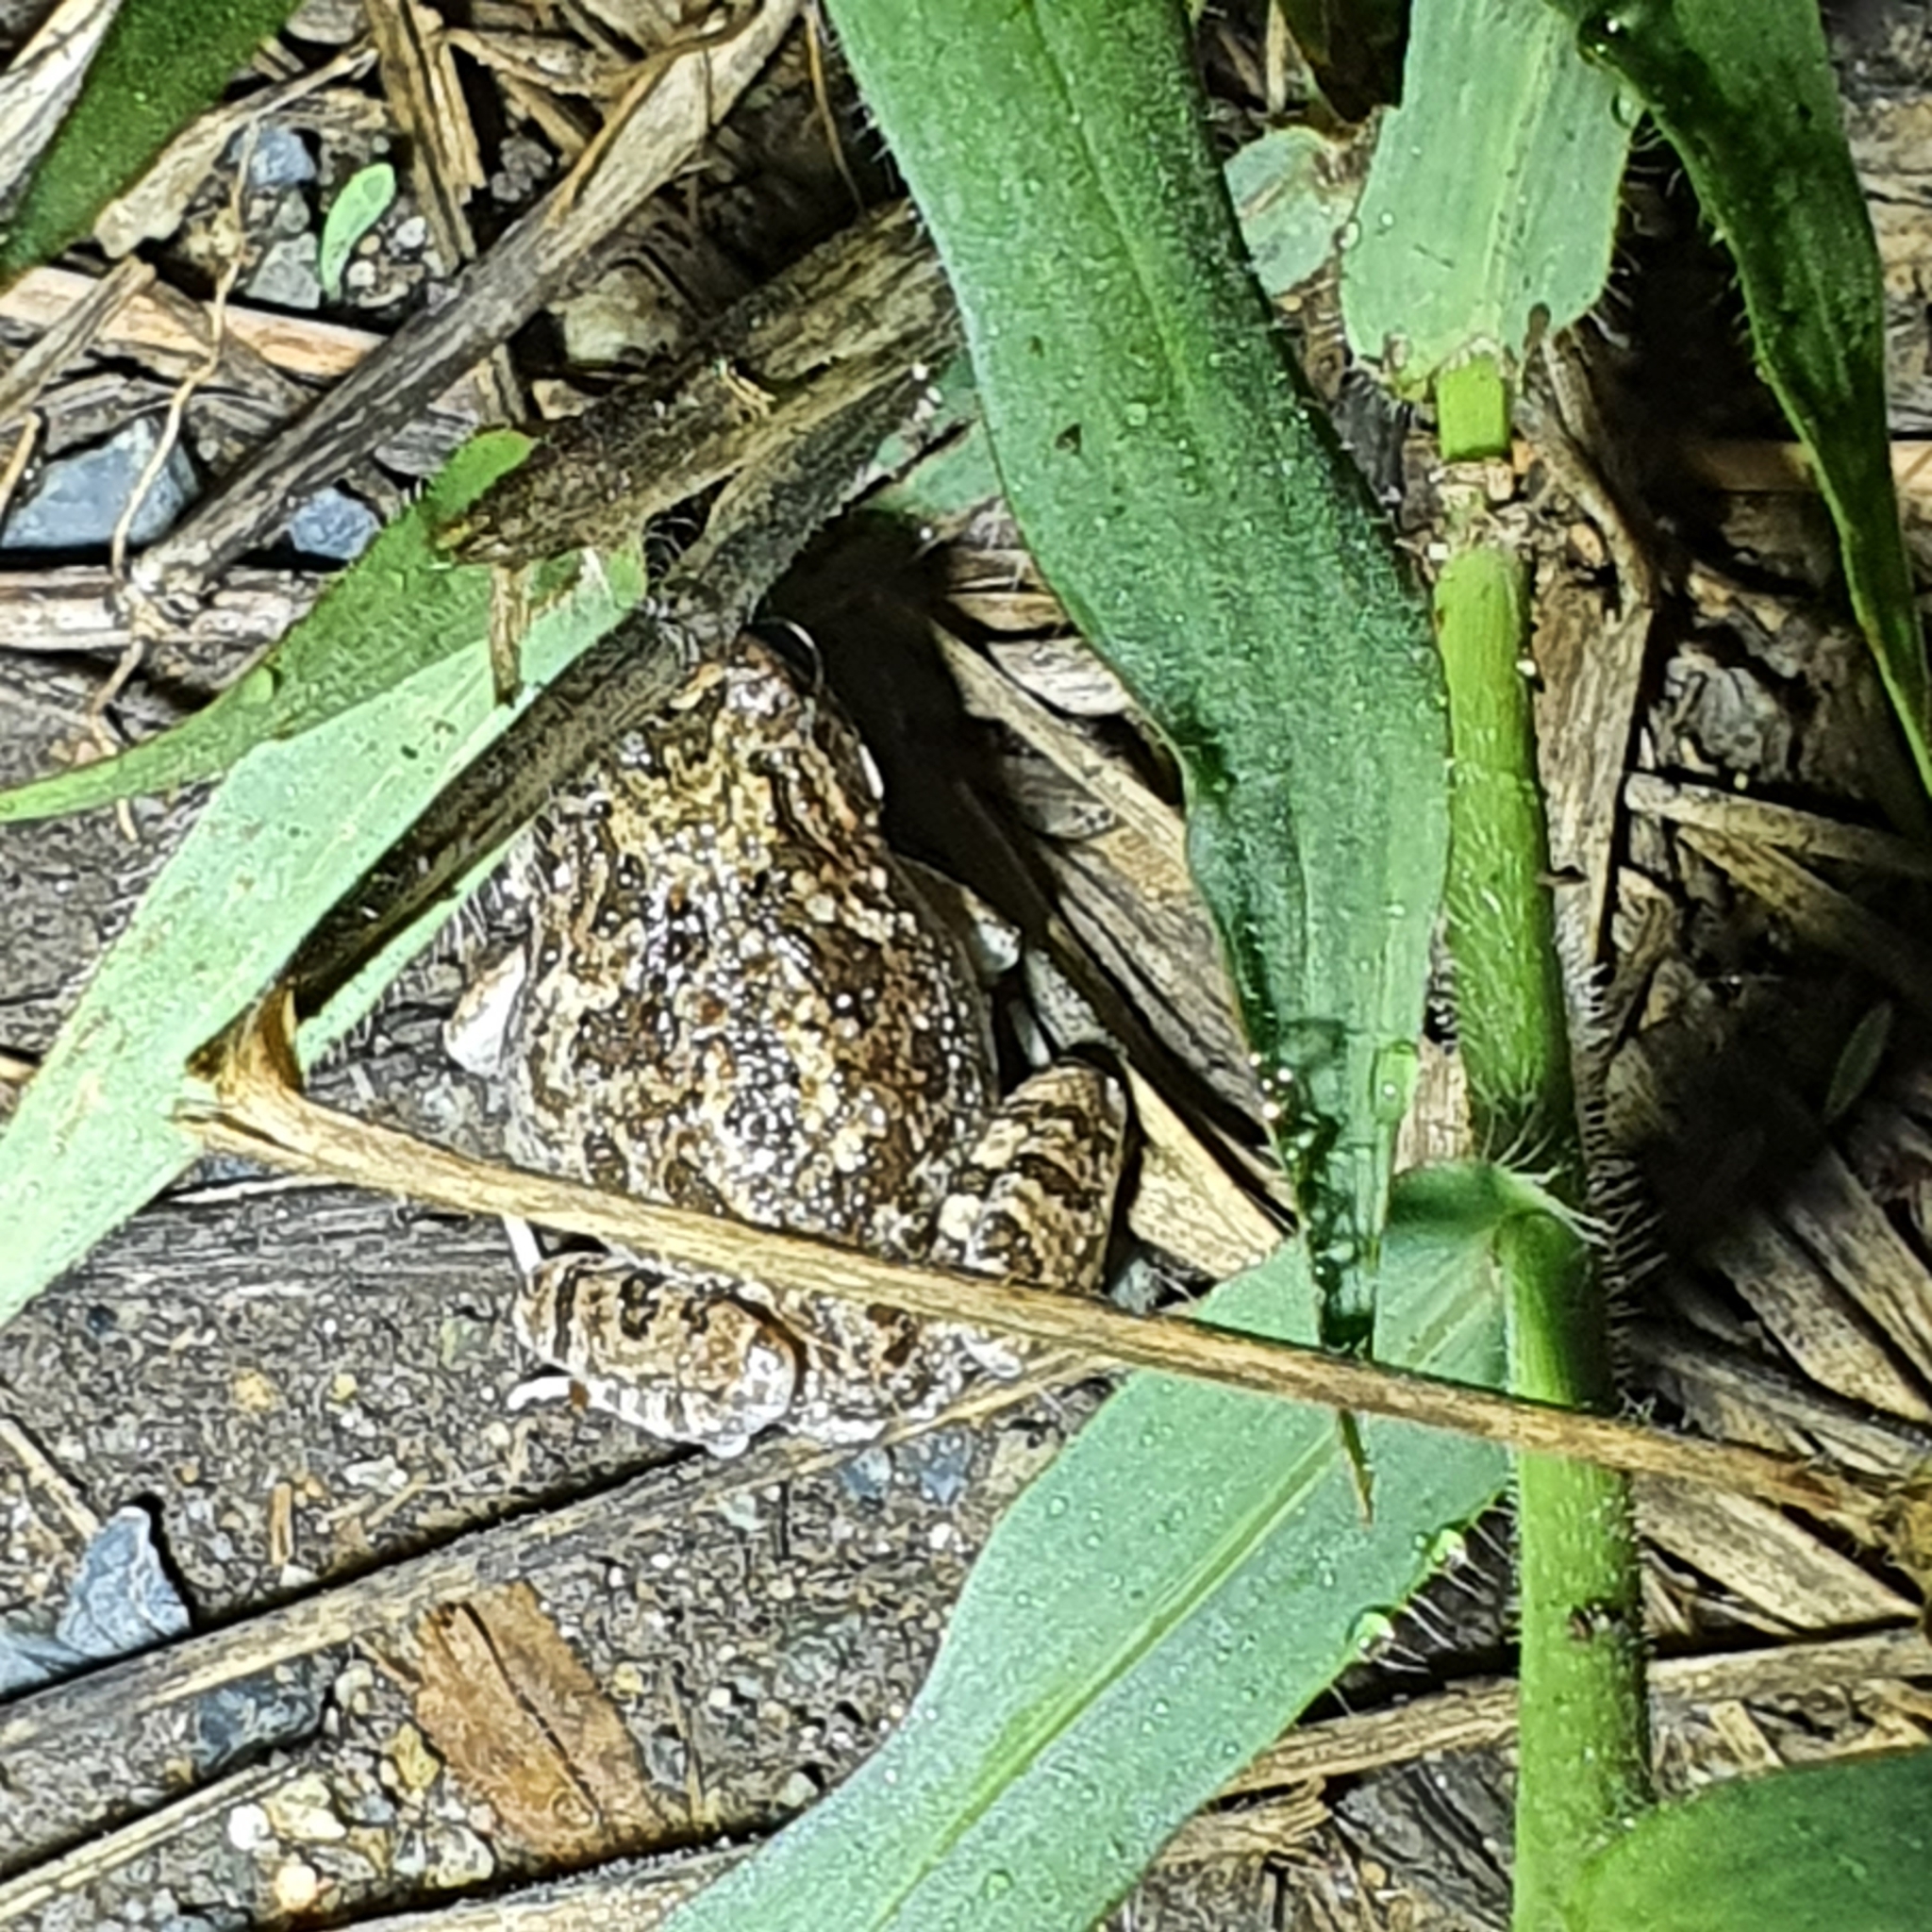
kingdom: Animalia
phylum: Chordata
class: Amphibia
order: Anura
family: Limnodynastidae
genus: Platyplectrum
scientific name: Platyplectrum ornatum
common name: Ornate burrowing frog
